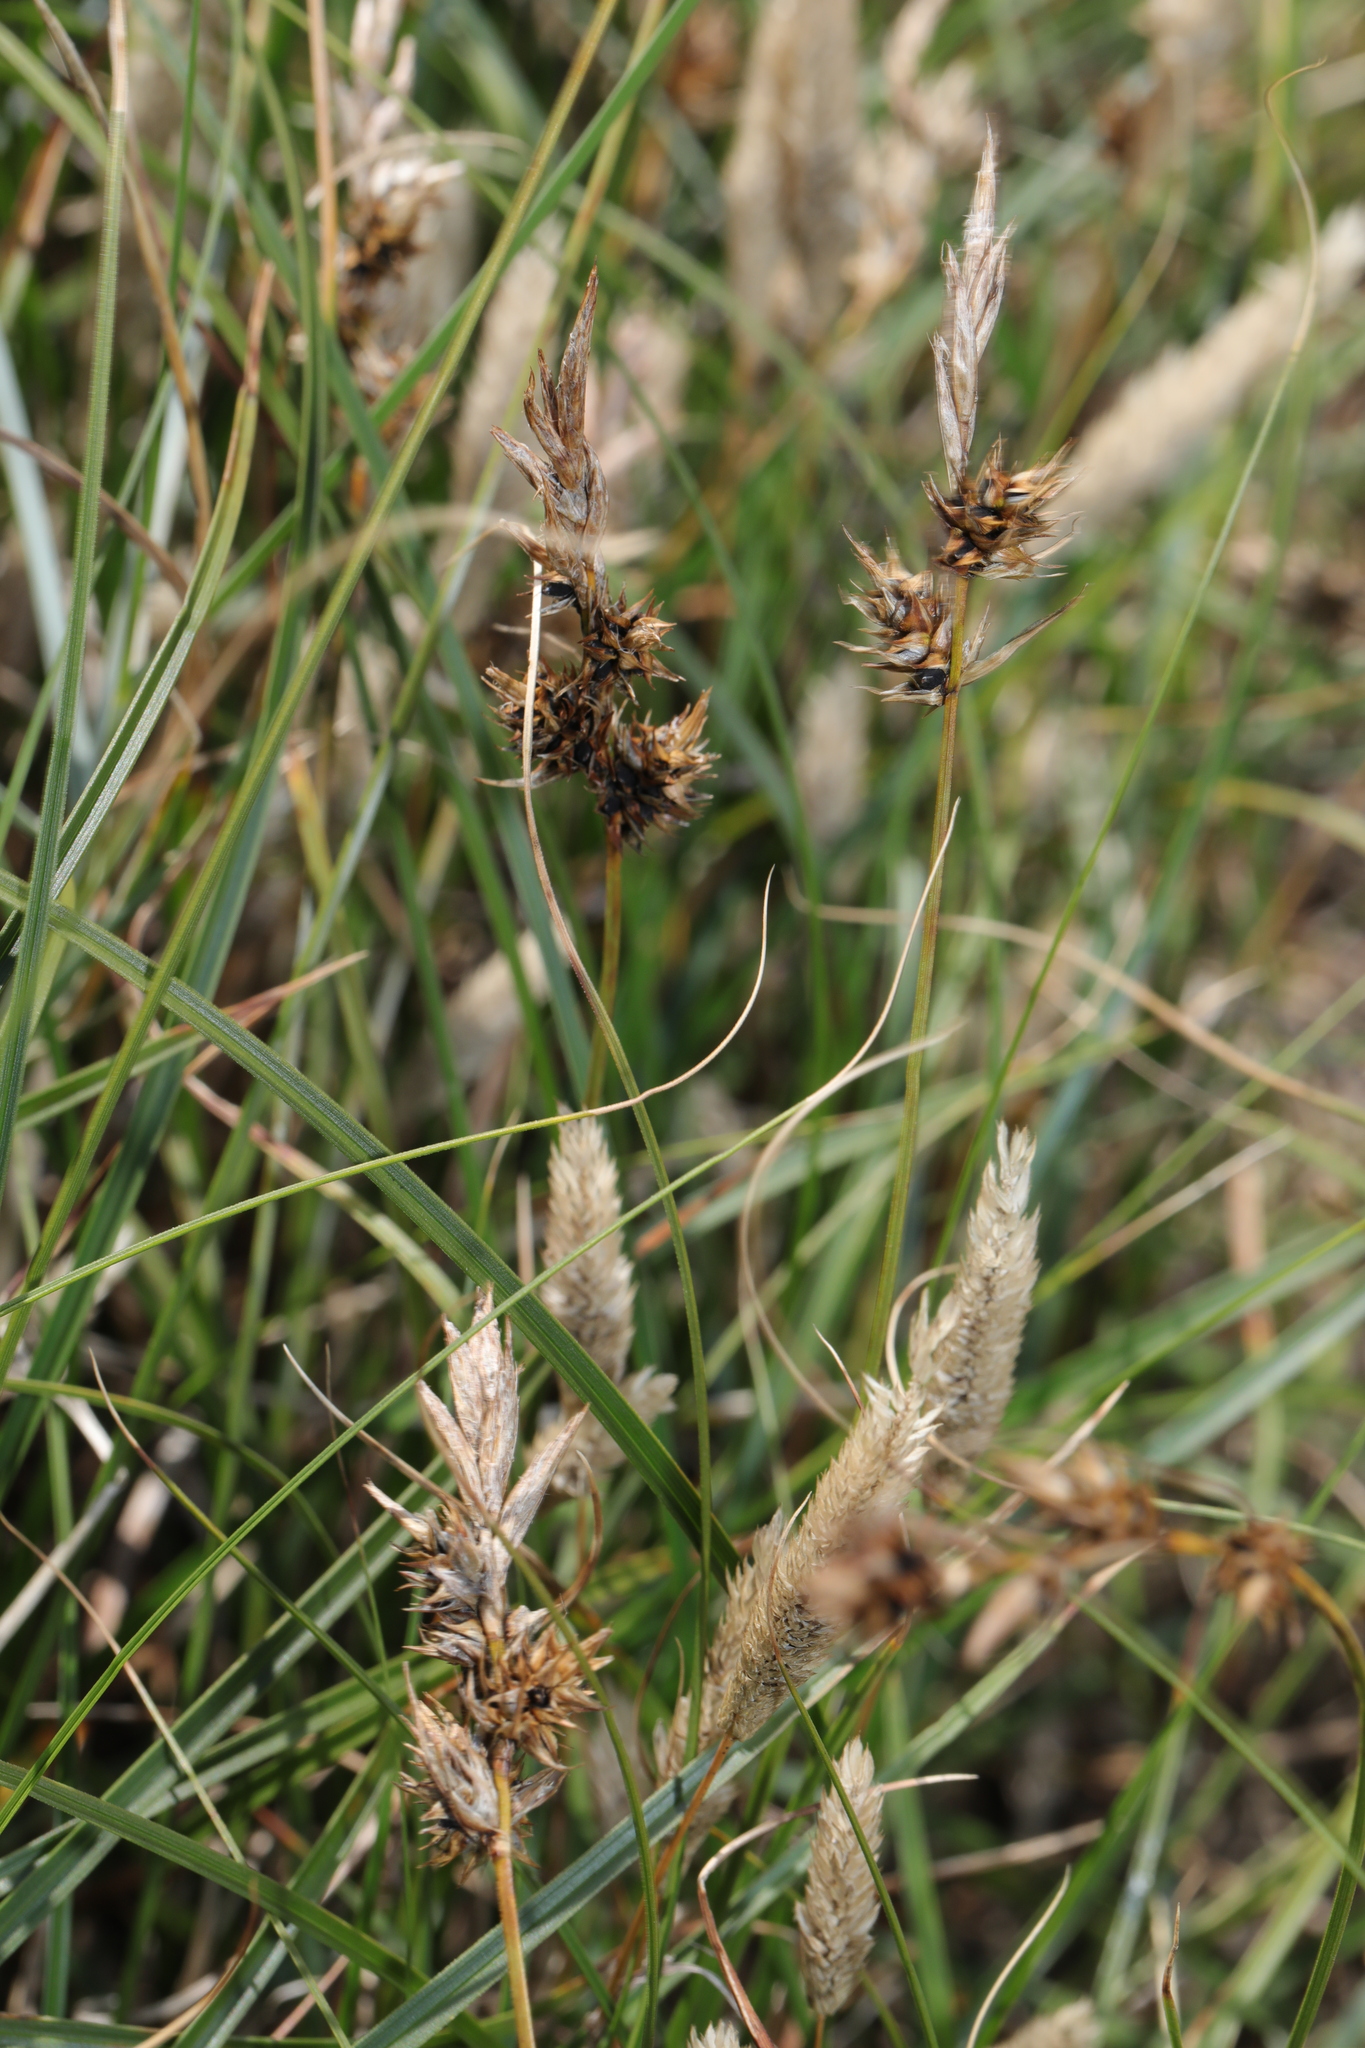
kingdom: Plantae
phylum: Tracheophyta
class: Liliopsida
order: Poales
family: Cyperaceae
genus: Carex
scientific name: Carex arenaria
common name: Sand sedge
